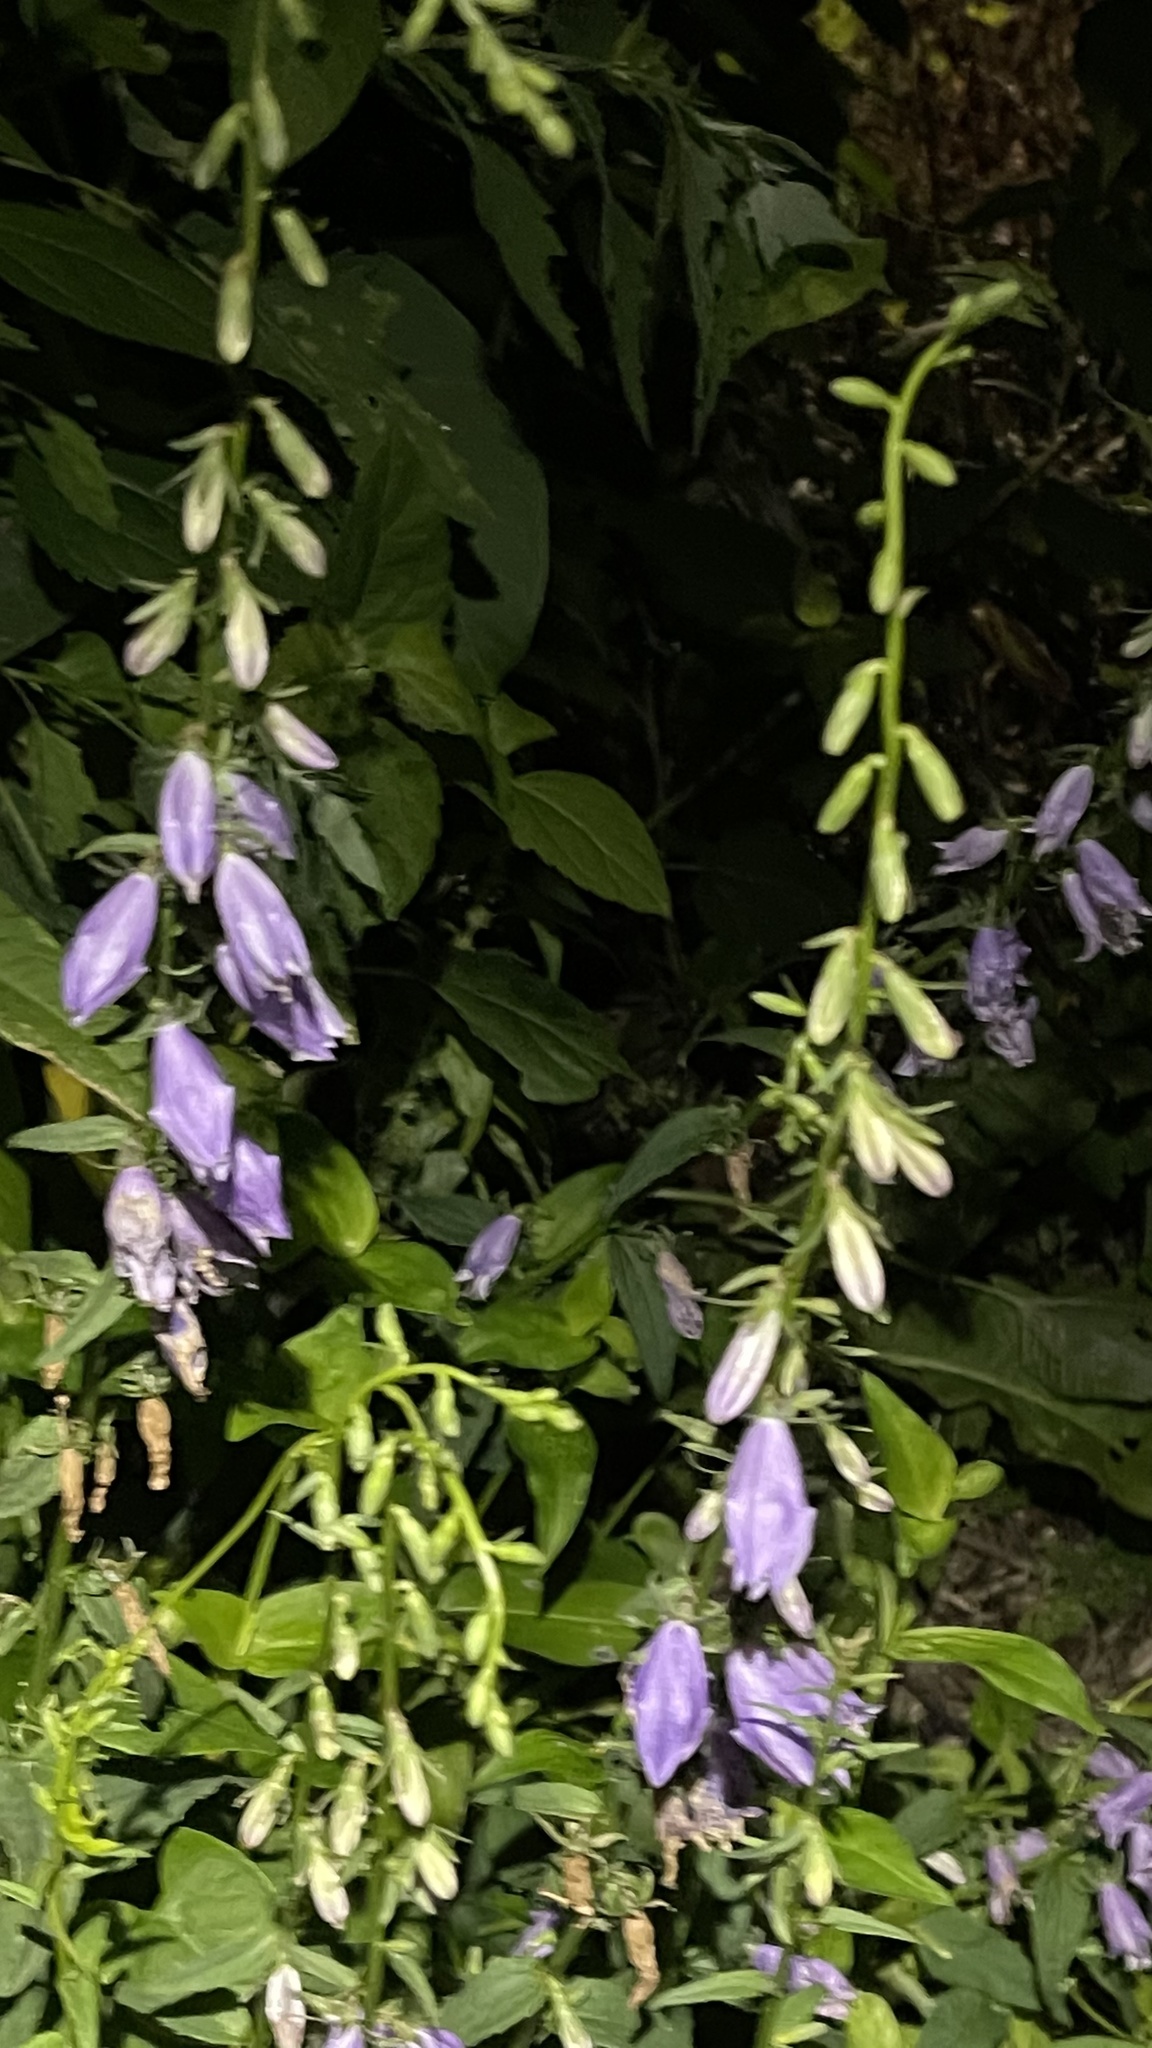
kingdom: Plantae
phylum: Tracheophyta
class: Magnoliopsida
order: Asterales
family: Campanulaceae
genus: Campanula
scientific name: Campanula rapunculoides
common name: Creeping bellflower
